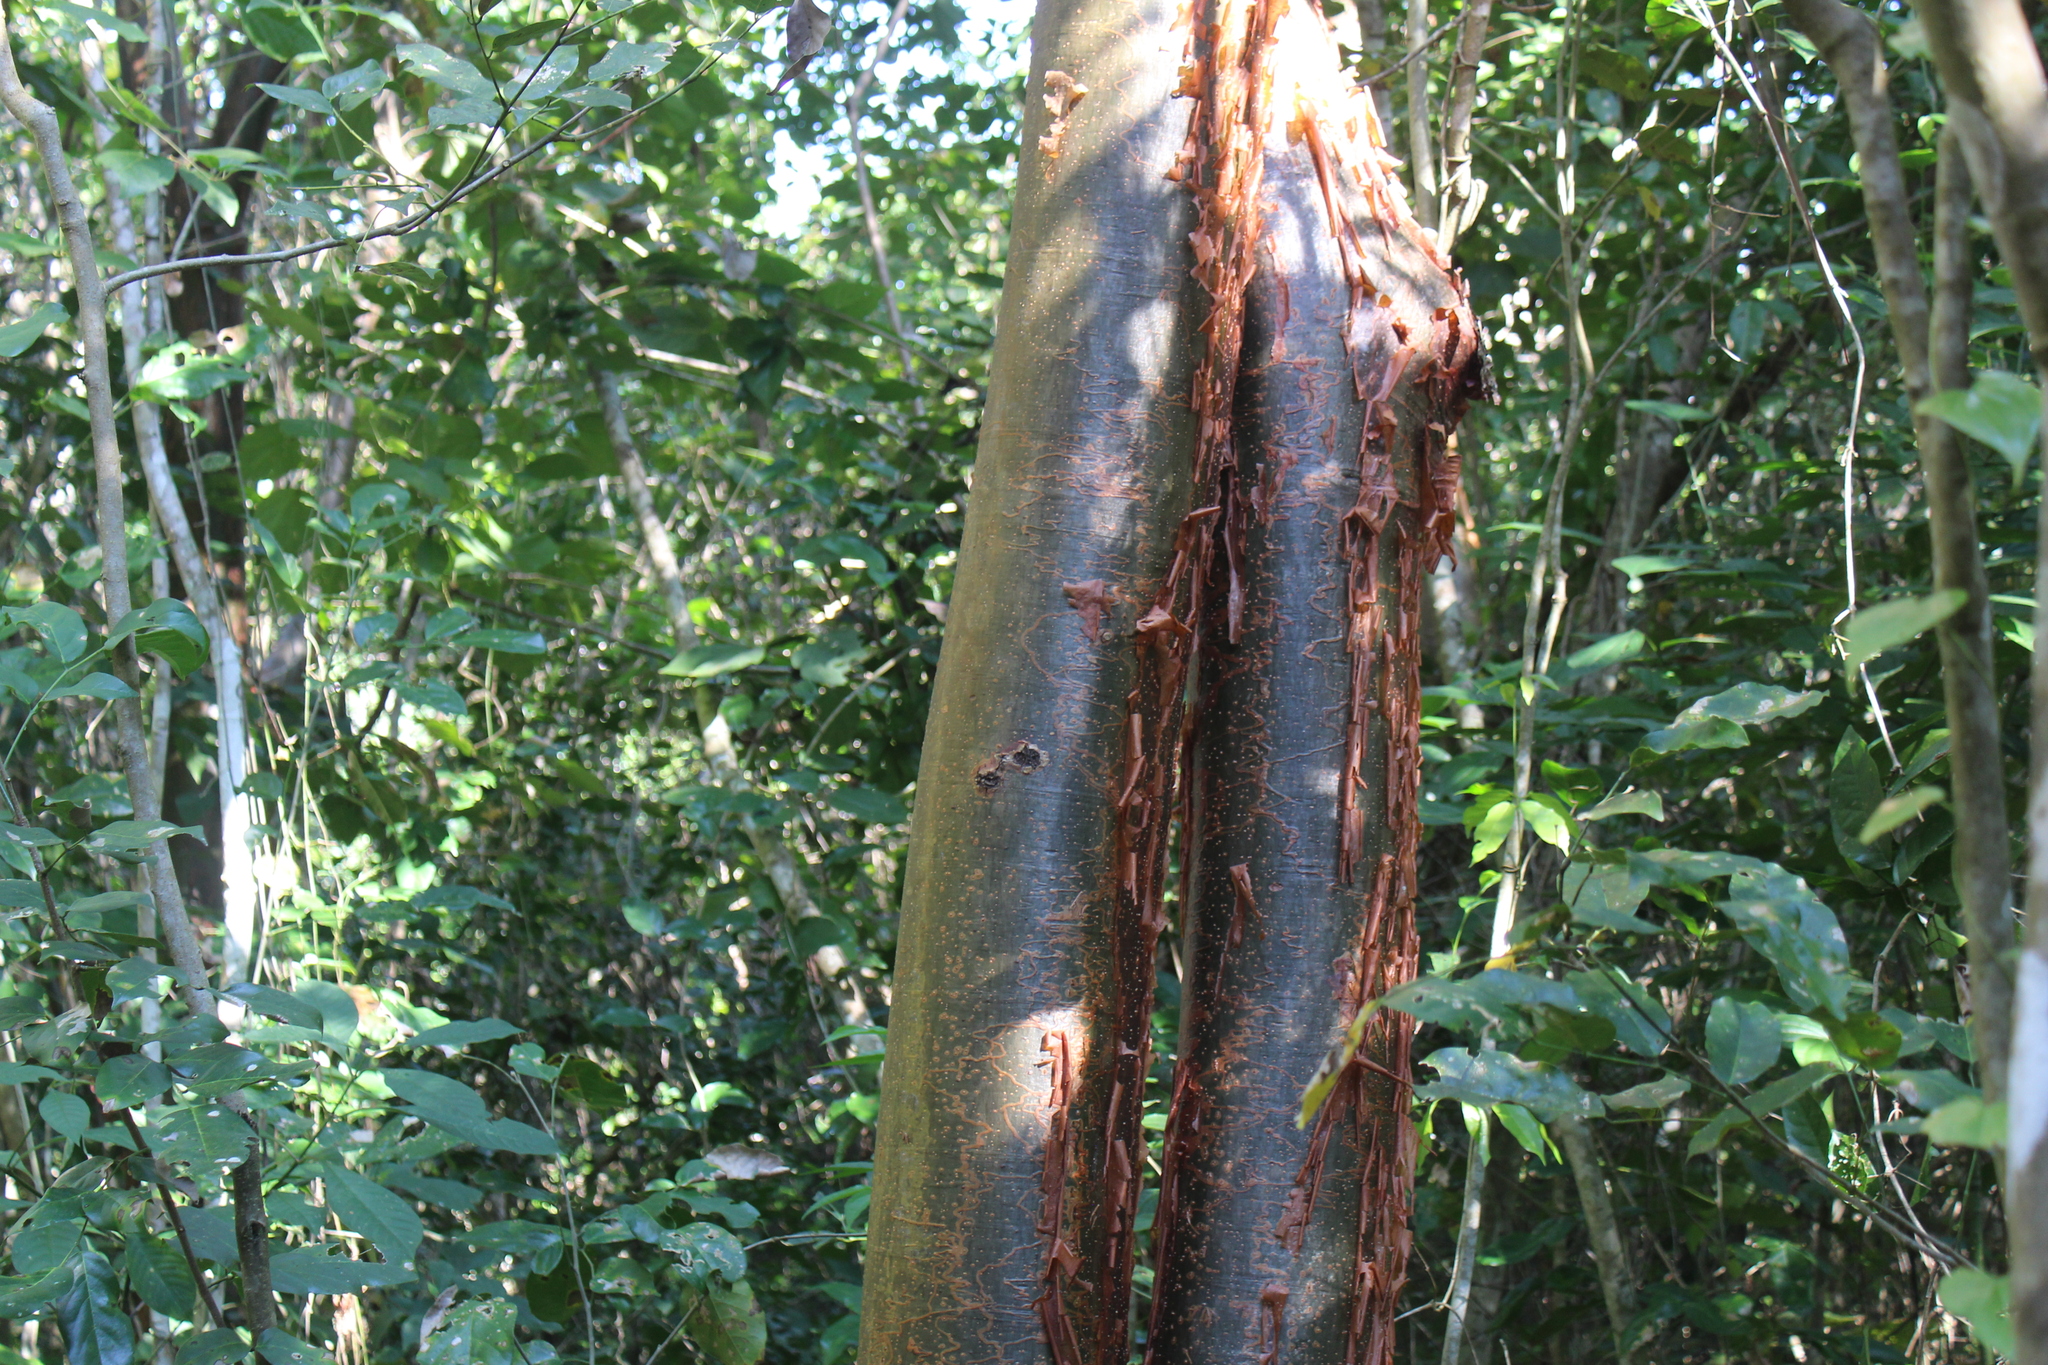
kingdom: Plantae
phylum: Tracheophyta
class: Magnoliopsida
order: Sapindales
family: Burseraceae
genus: Bursera
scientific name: Bursera simaruba
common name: Turpentine tree
